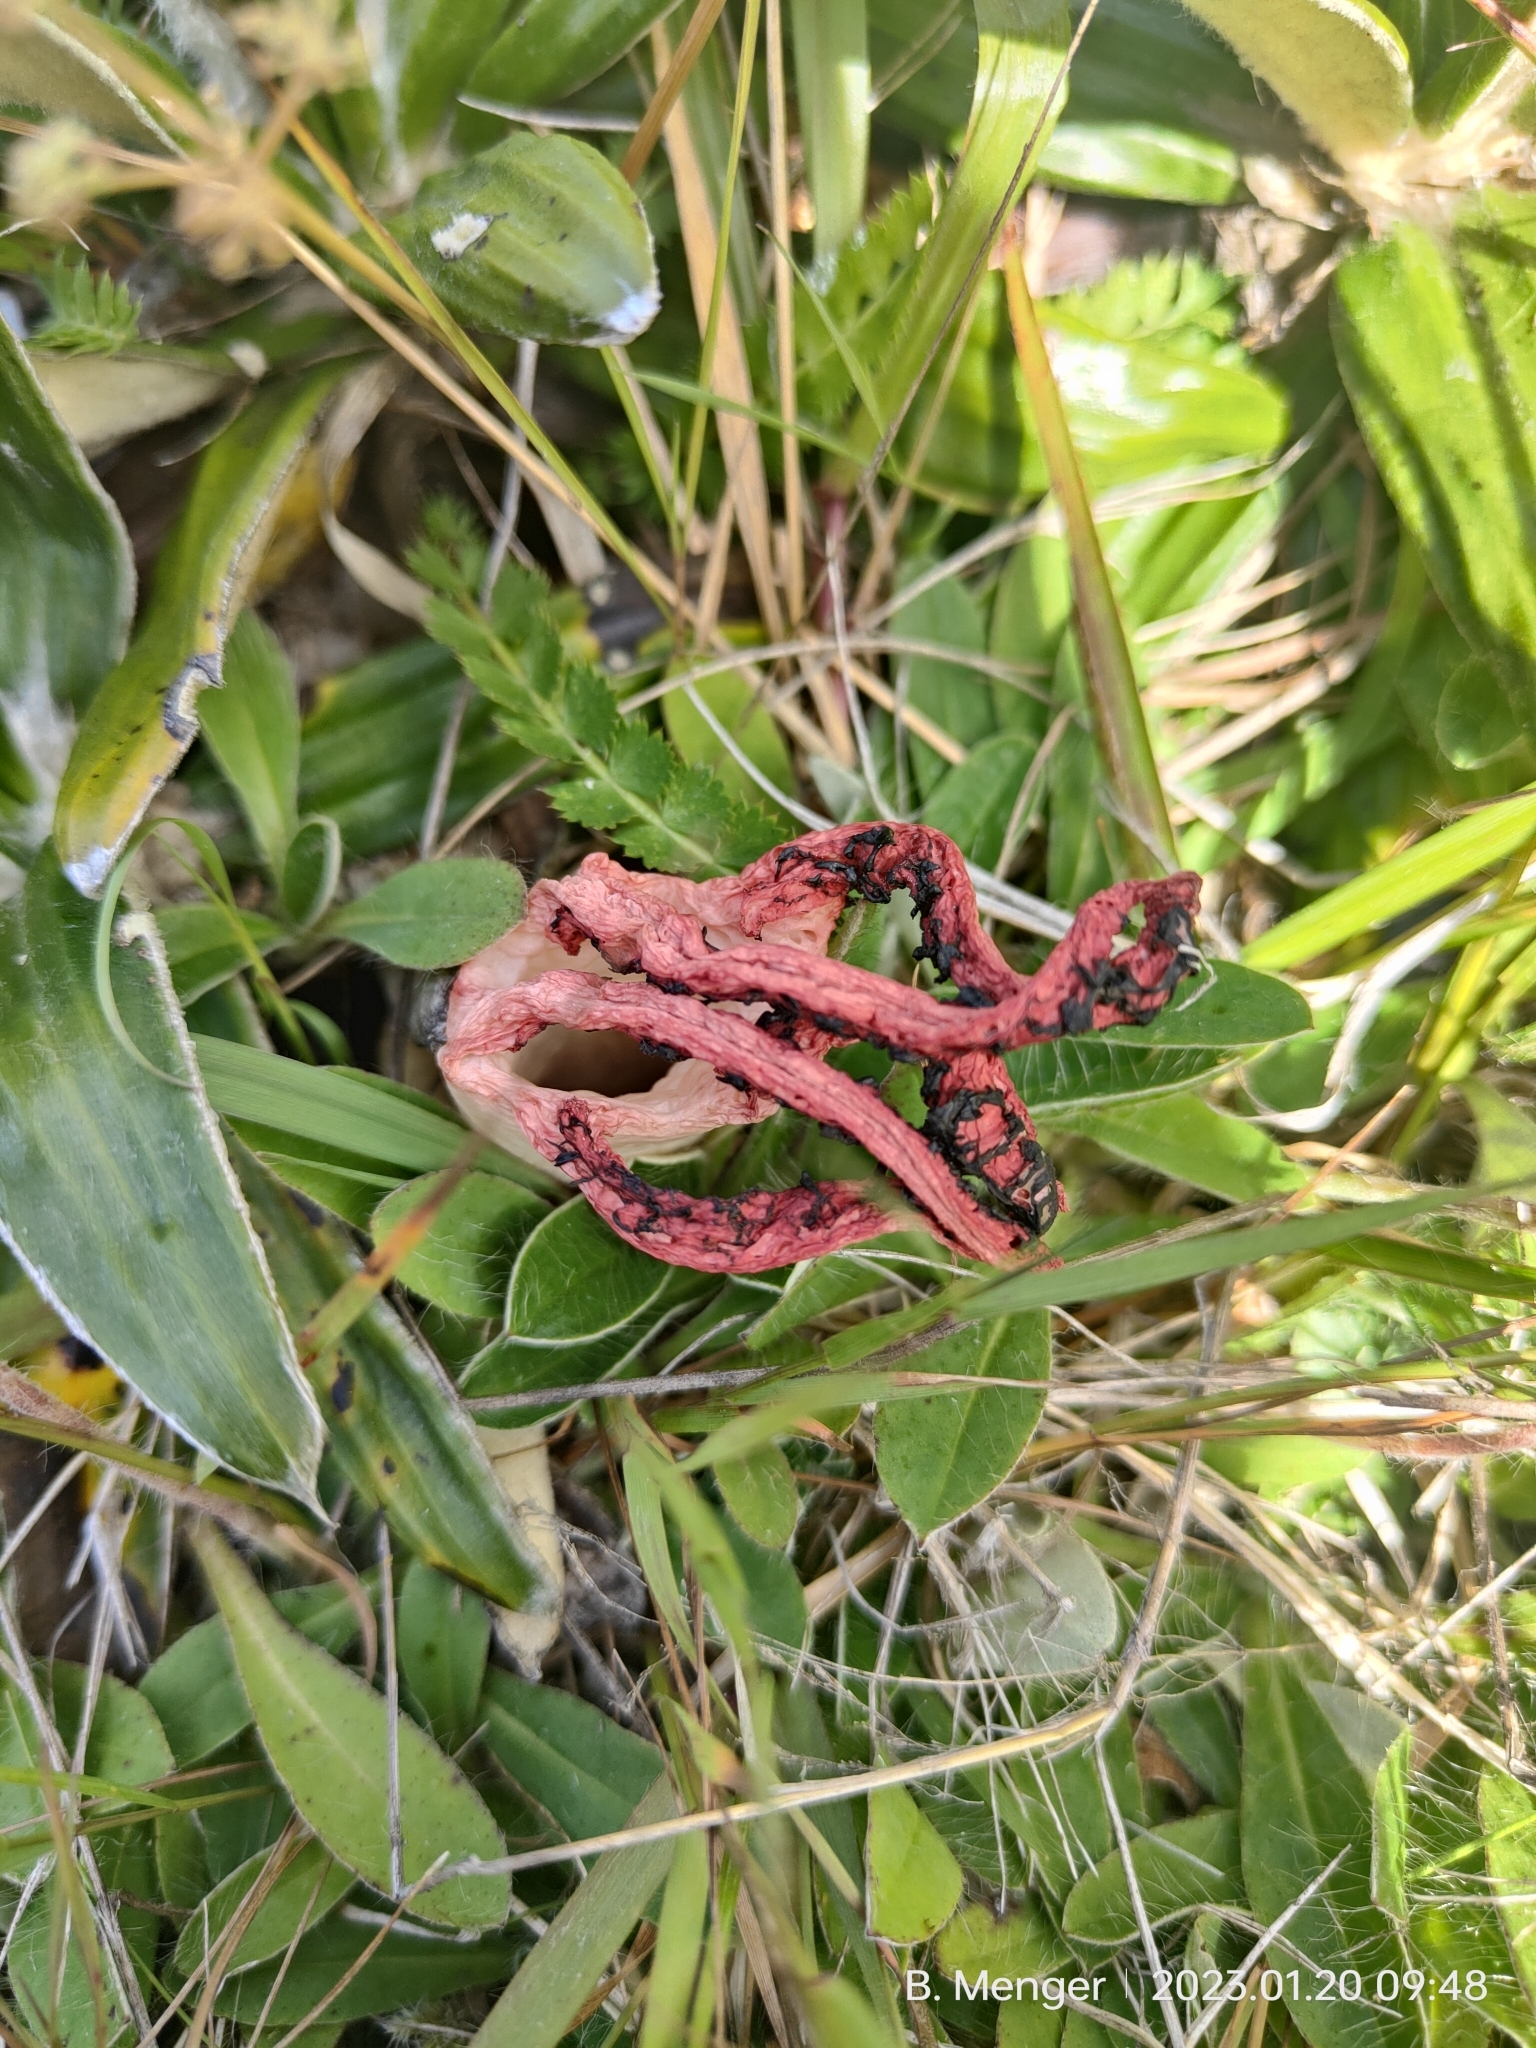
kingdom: Fungi
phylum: Basidiomycota
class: Agaricomycetes
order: Phallales
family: Phallaceae
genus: Clathrus
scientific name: Clathrus archeri
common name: Devil's fingers
